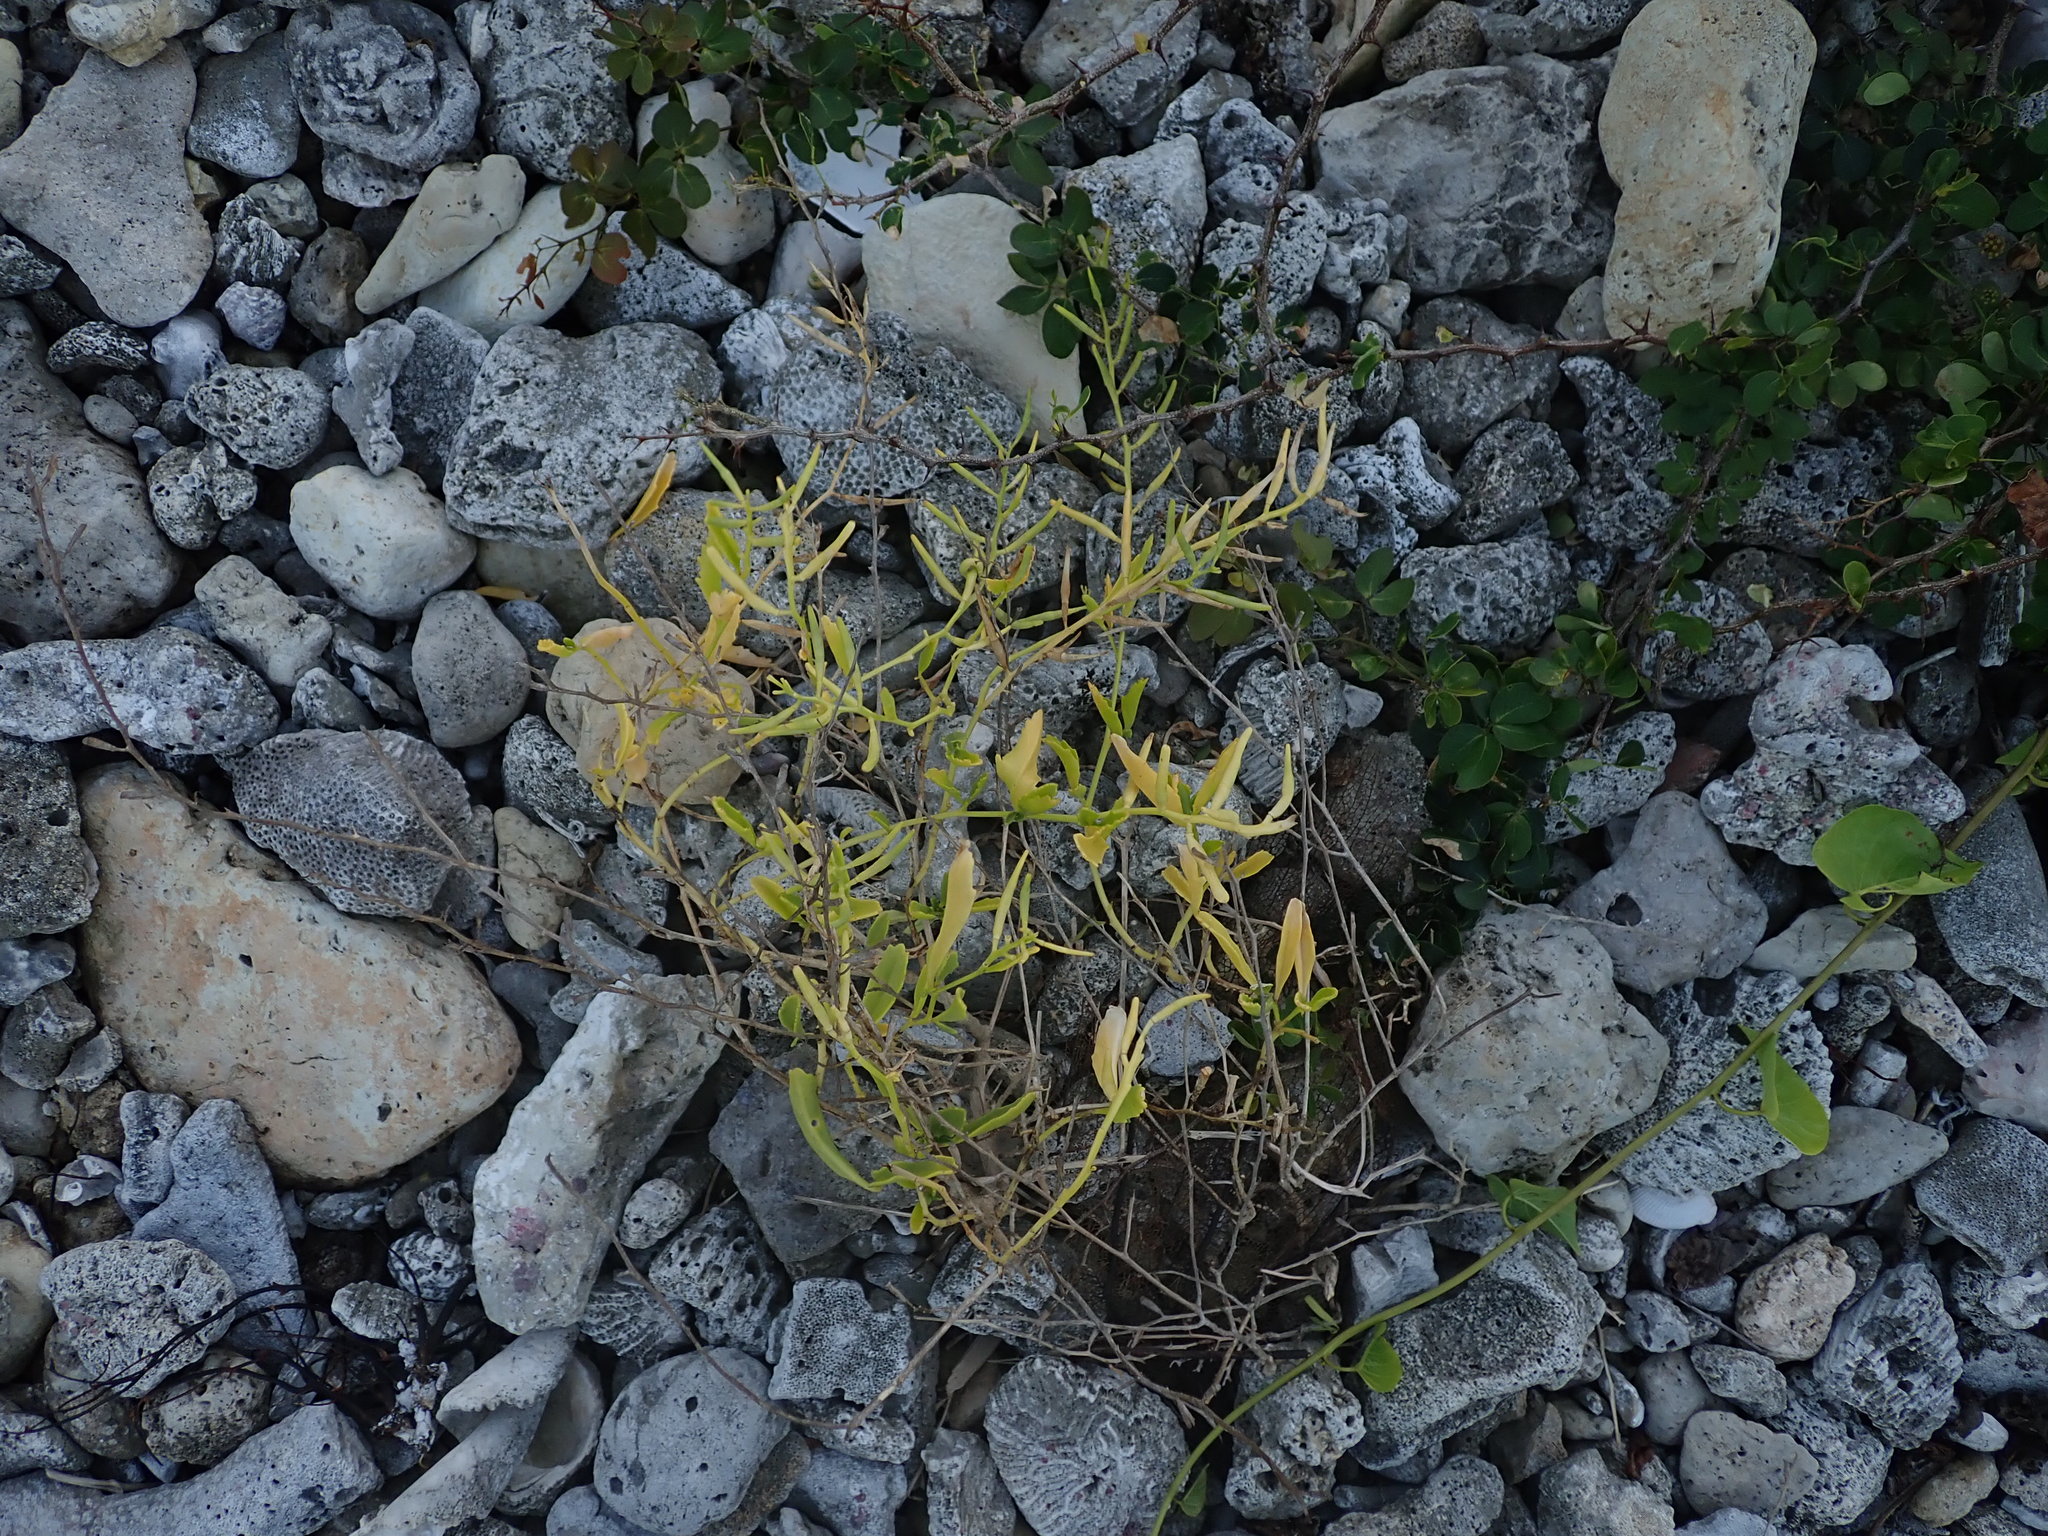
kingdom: Plantae
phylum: Tracheophyta
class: Magnoliopsida
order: Brassicales
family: Brassicaceae
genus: Cakile
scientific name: Cakile lanceolata
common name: Sea rocket
